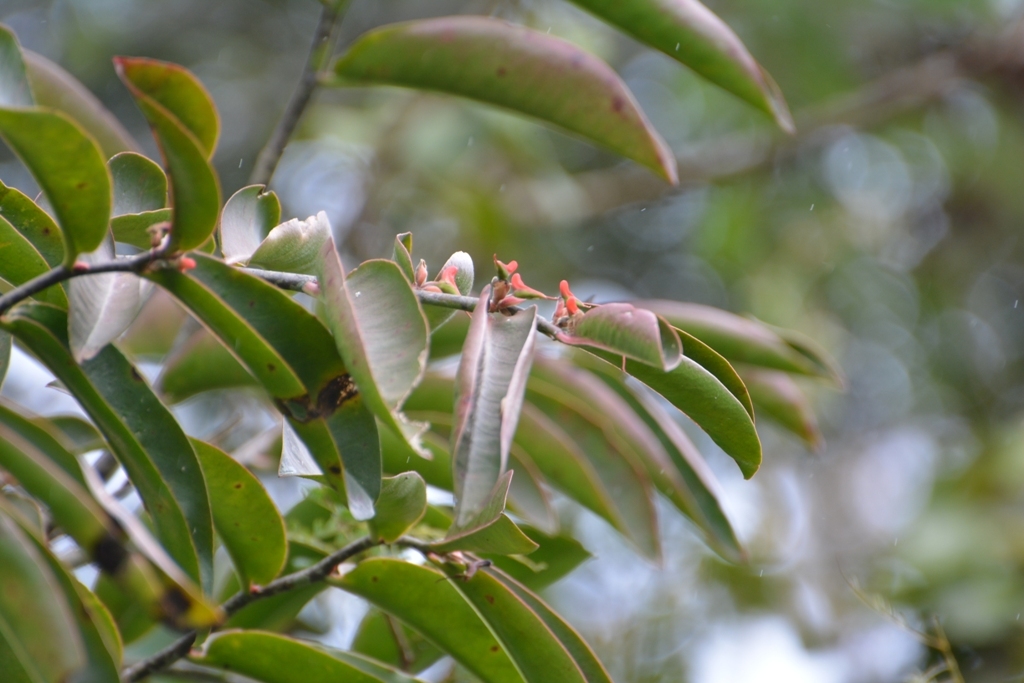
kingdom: Plantae
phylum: Tracheophyta
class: Magnoliopsida
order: Malpighiales
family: Euphorbiaceae
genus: Euphorbia
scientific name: Euphorbia calcarata
